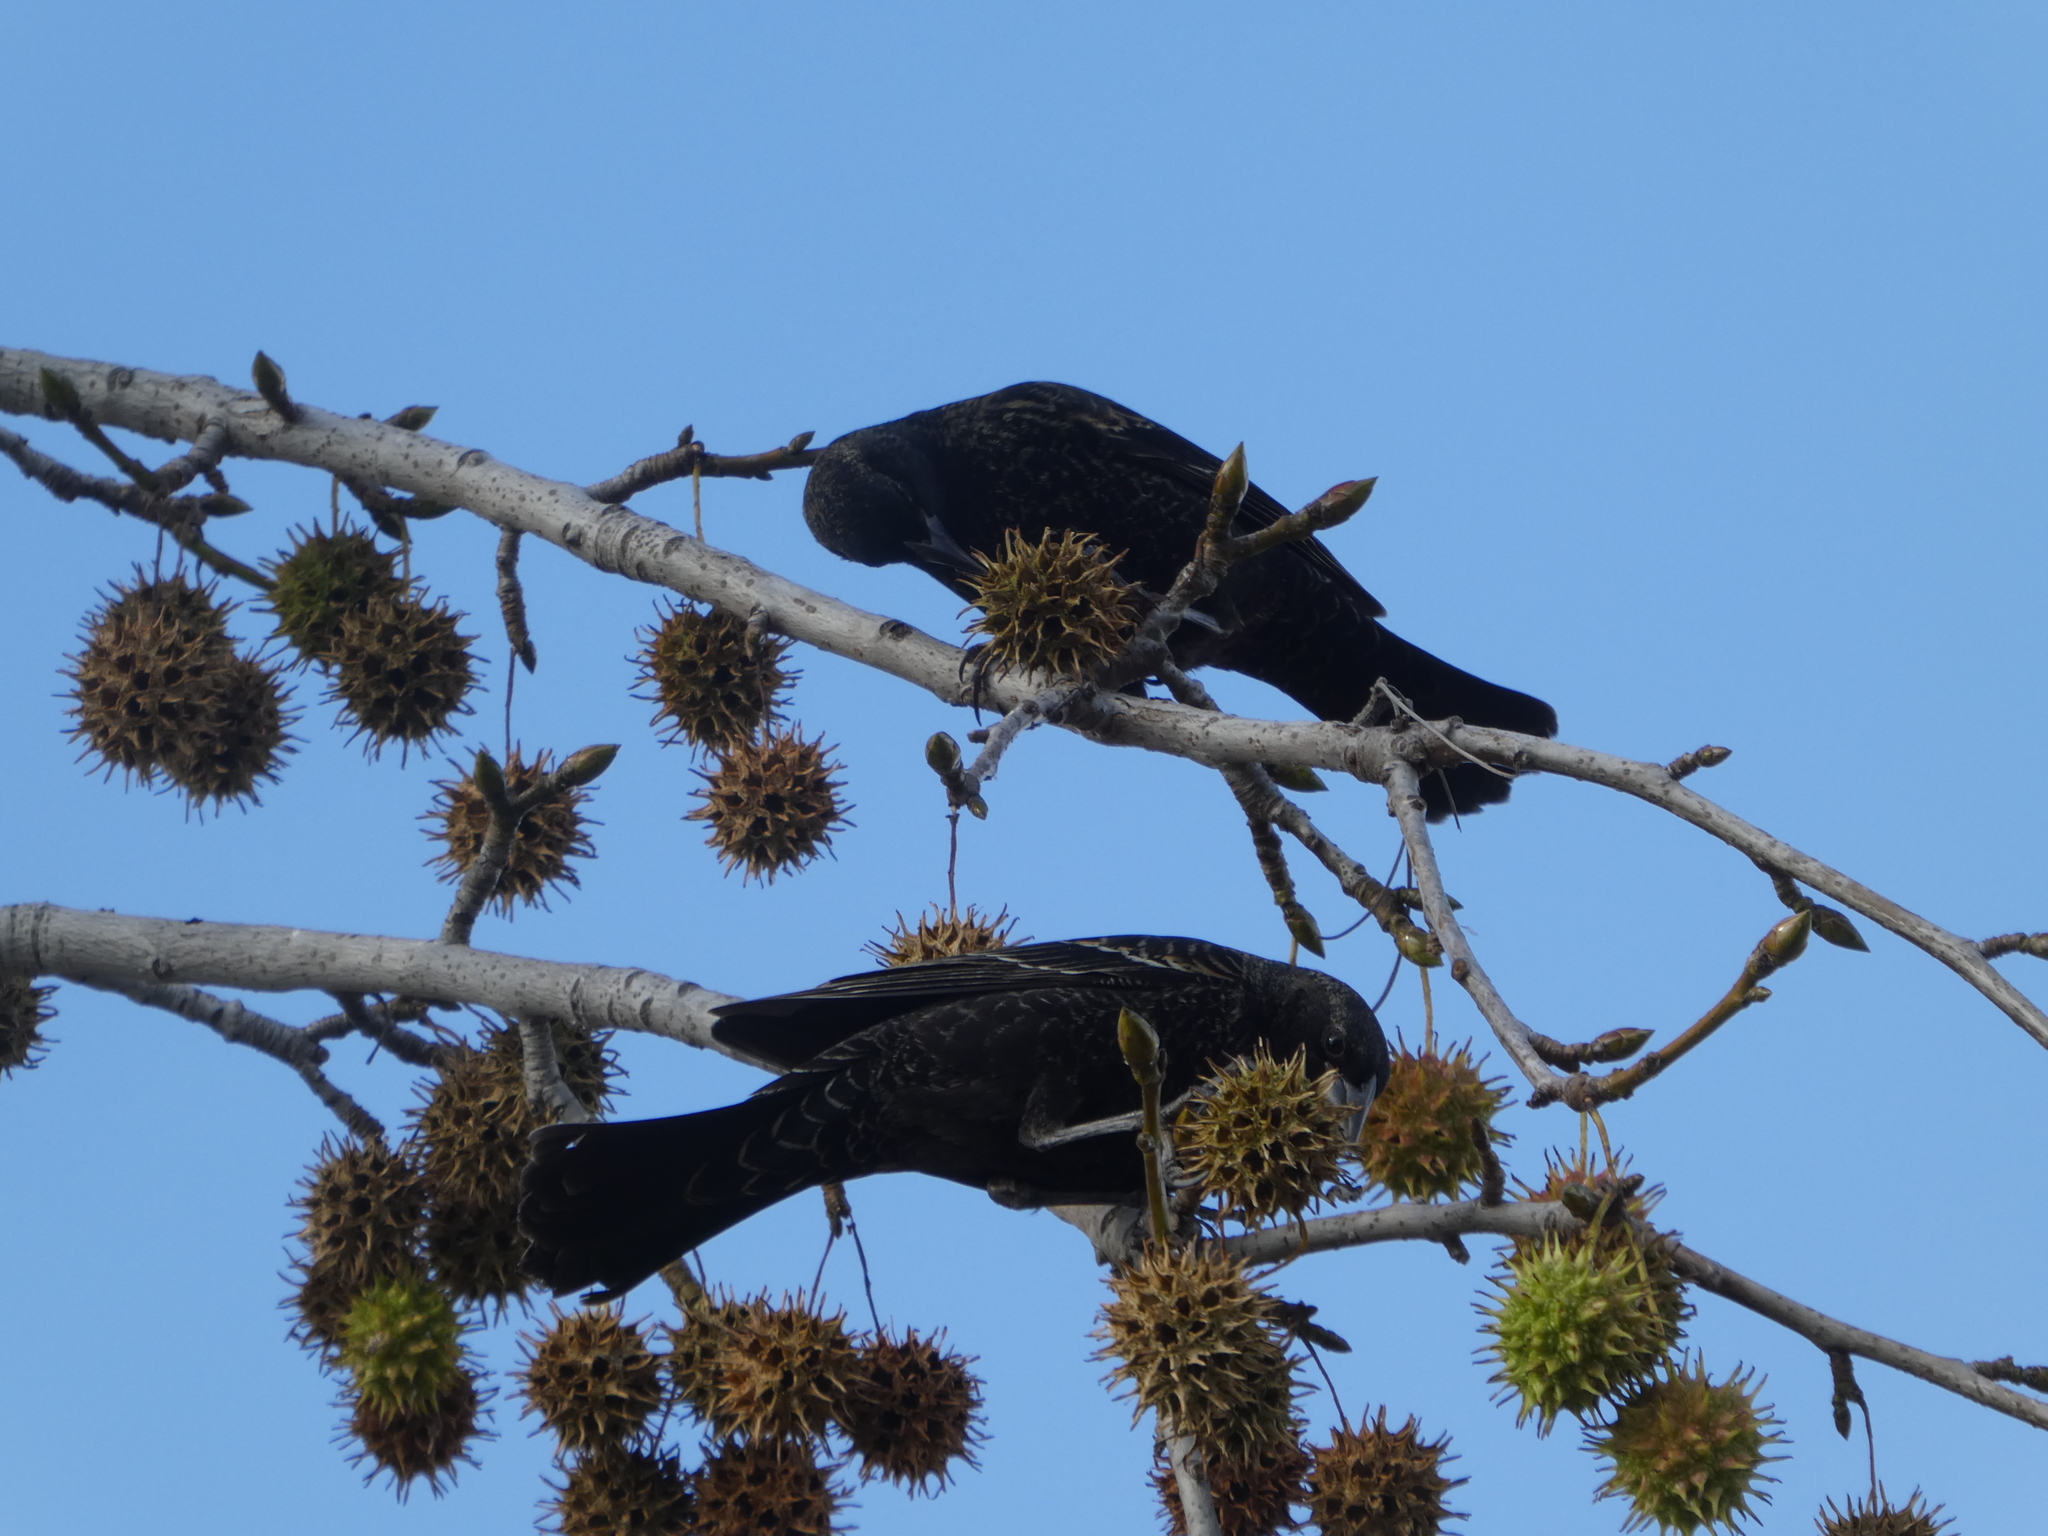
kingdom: Animalia
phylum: Chordata
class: Aves
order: Passeriformes
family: Icteridae
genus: Agelaius
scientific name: Agelaius phoeniceus
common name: Red-winged blackbird
